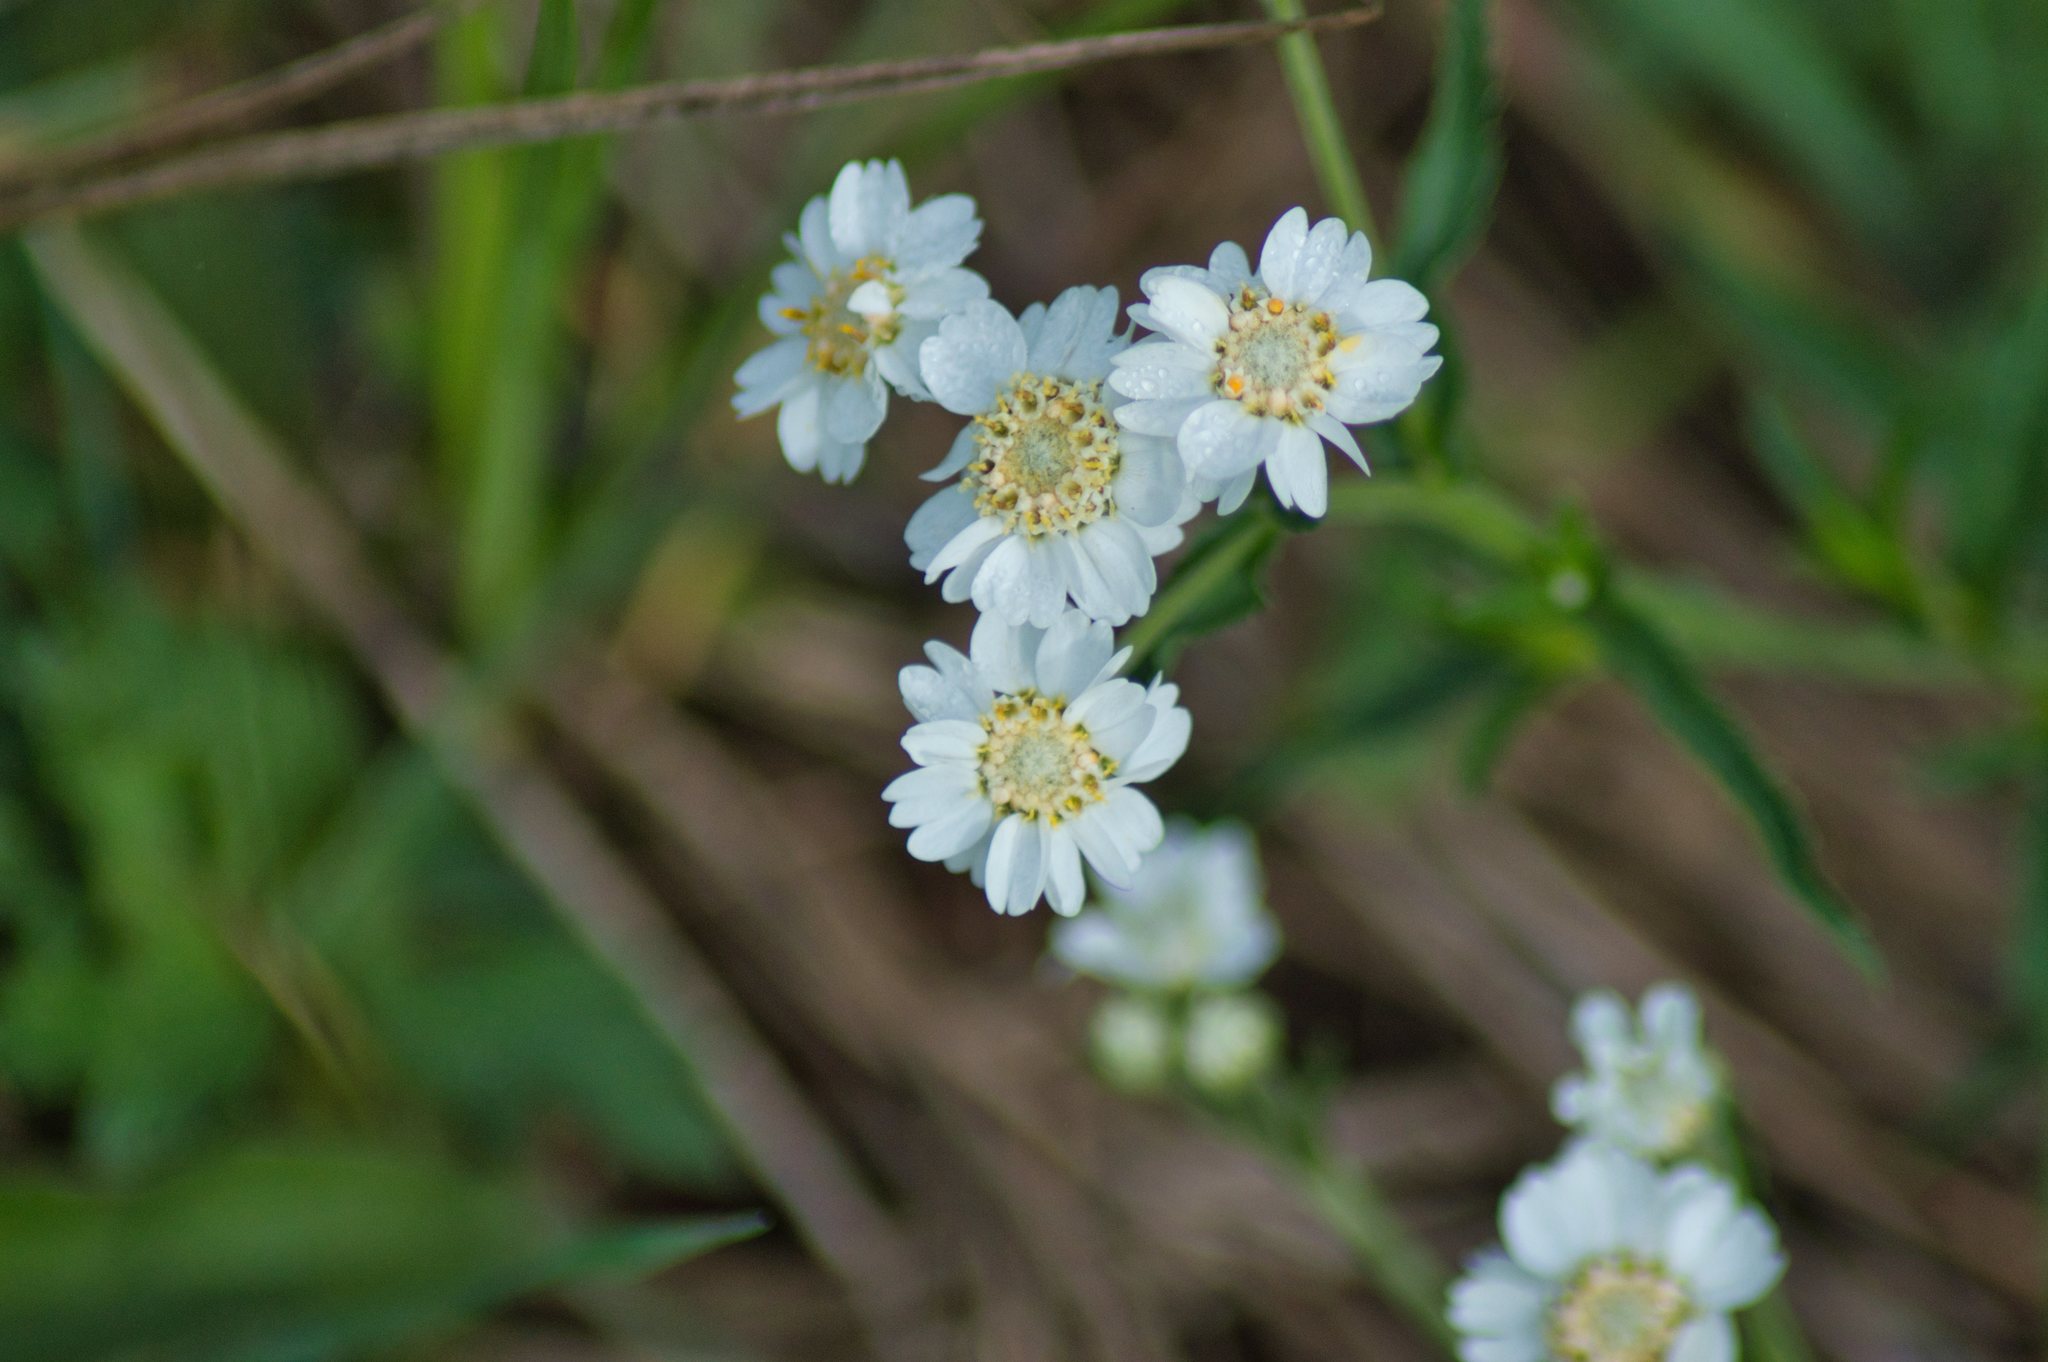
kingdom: Plantae
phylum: Tracheophyta
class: Magnoliopsida
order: Asterales
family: Asteraceae
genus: Achillea
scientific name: Achillea ptarmica
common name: Sneezeweed
